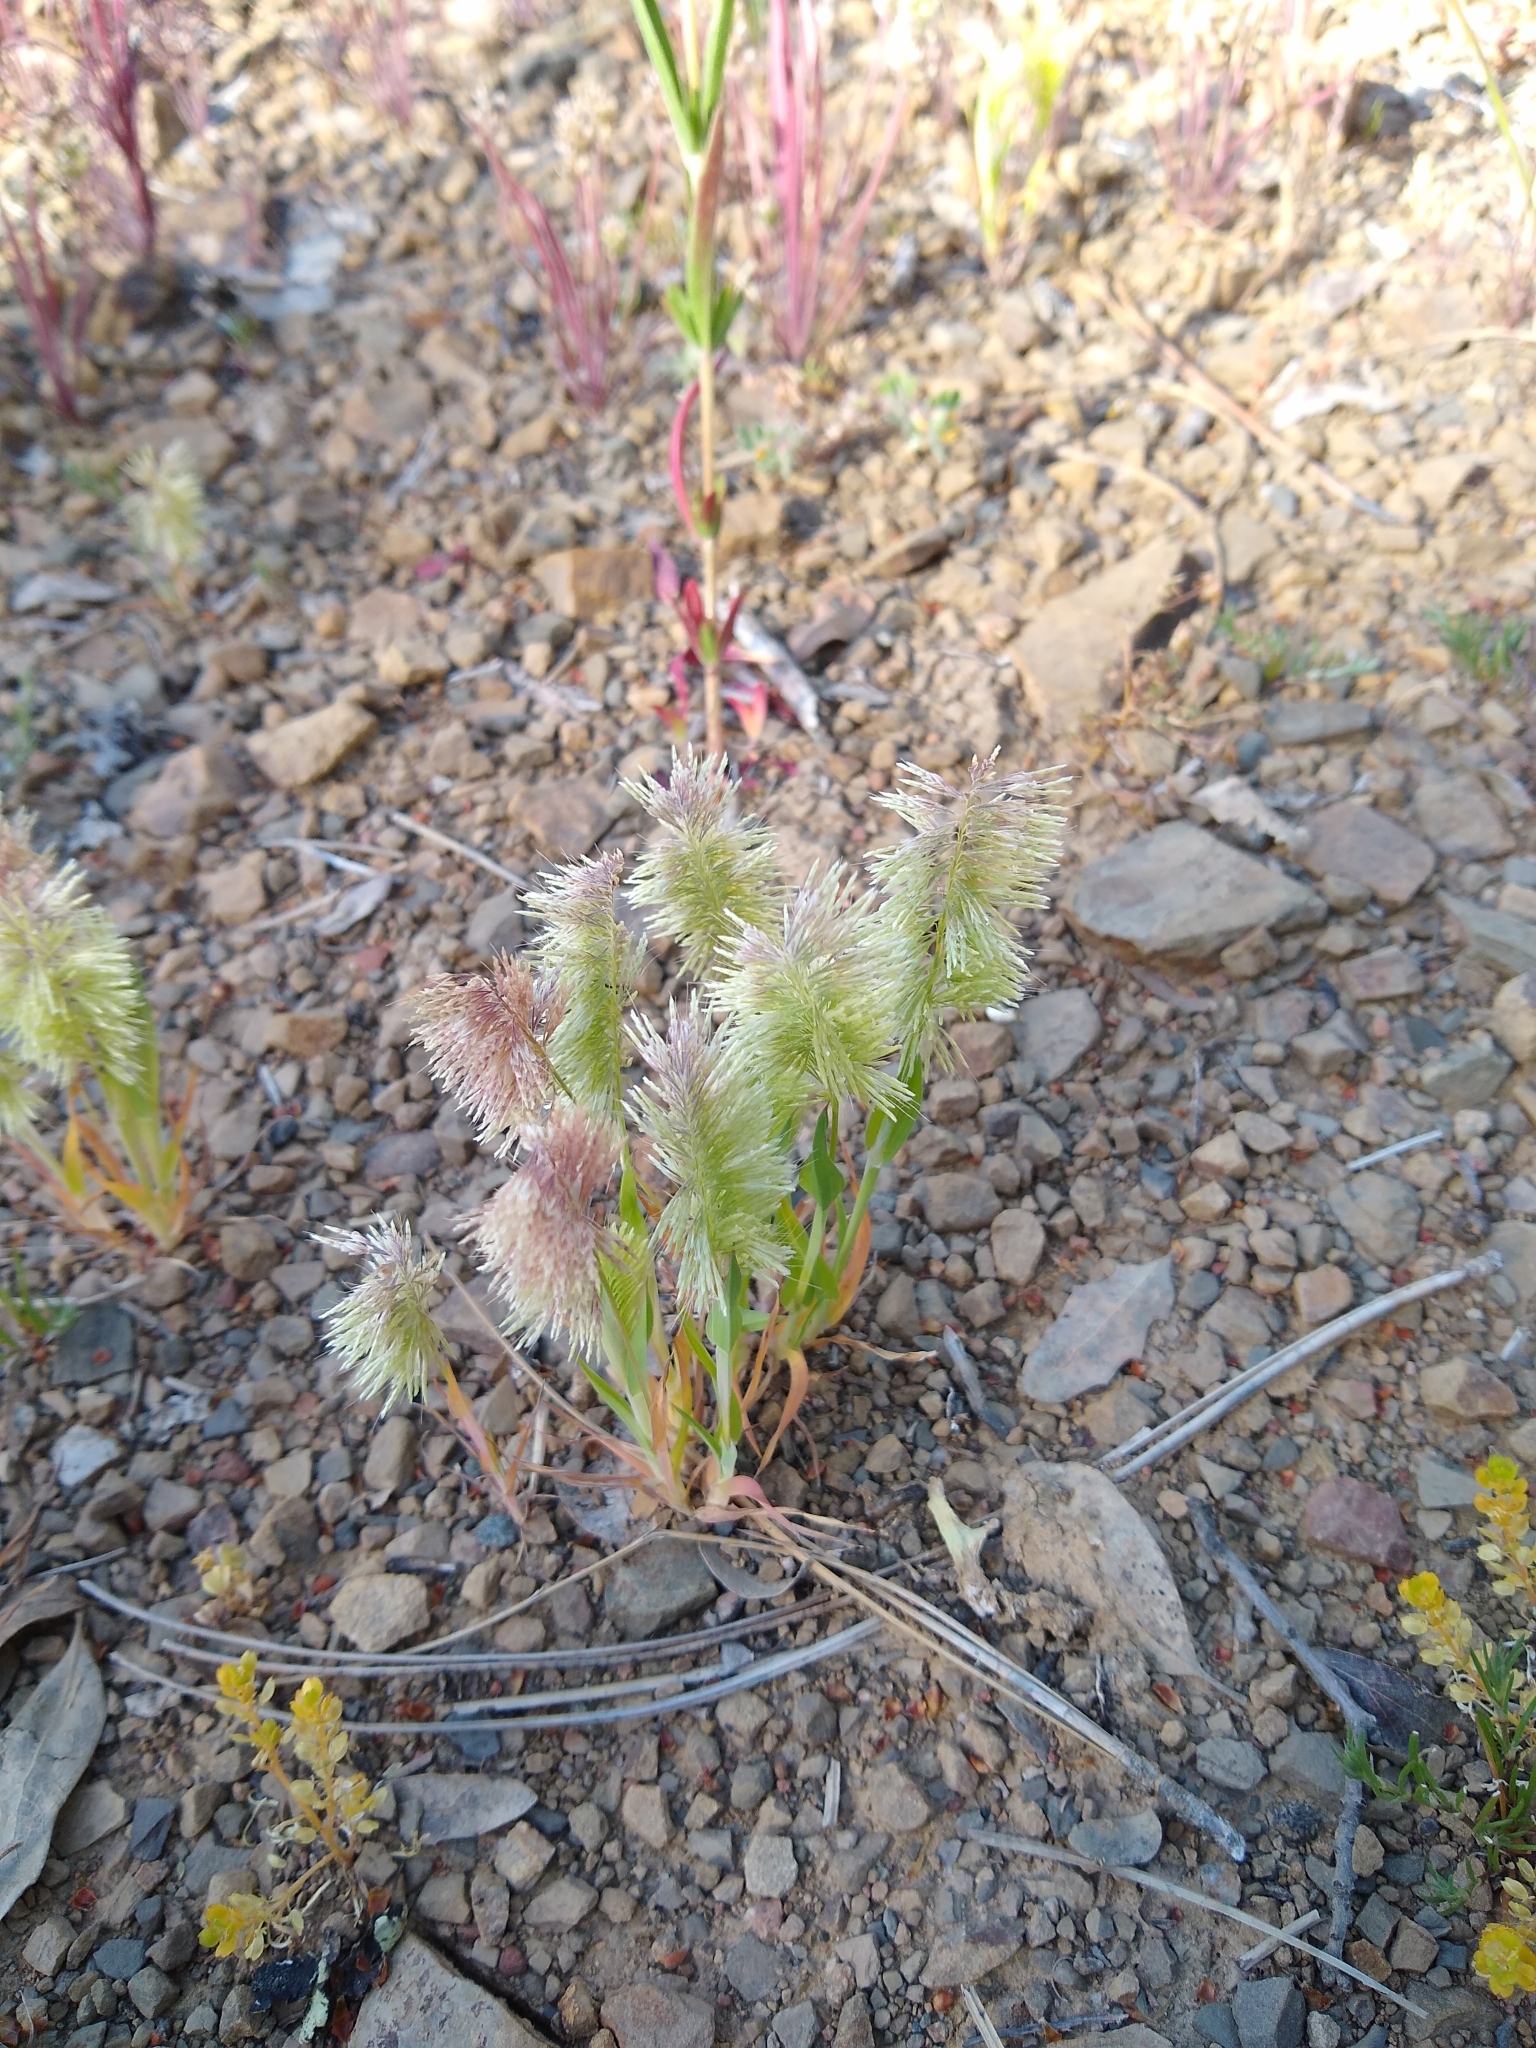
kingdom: Plantae
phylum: Tracheophyta
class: Liliopsida
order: Poales
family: Poaceae
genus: Lamarckia
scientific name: Lamarckia aurea
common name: Golden dog's-tail
